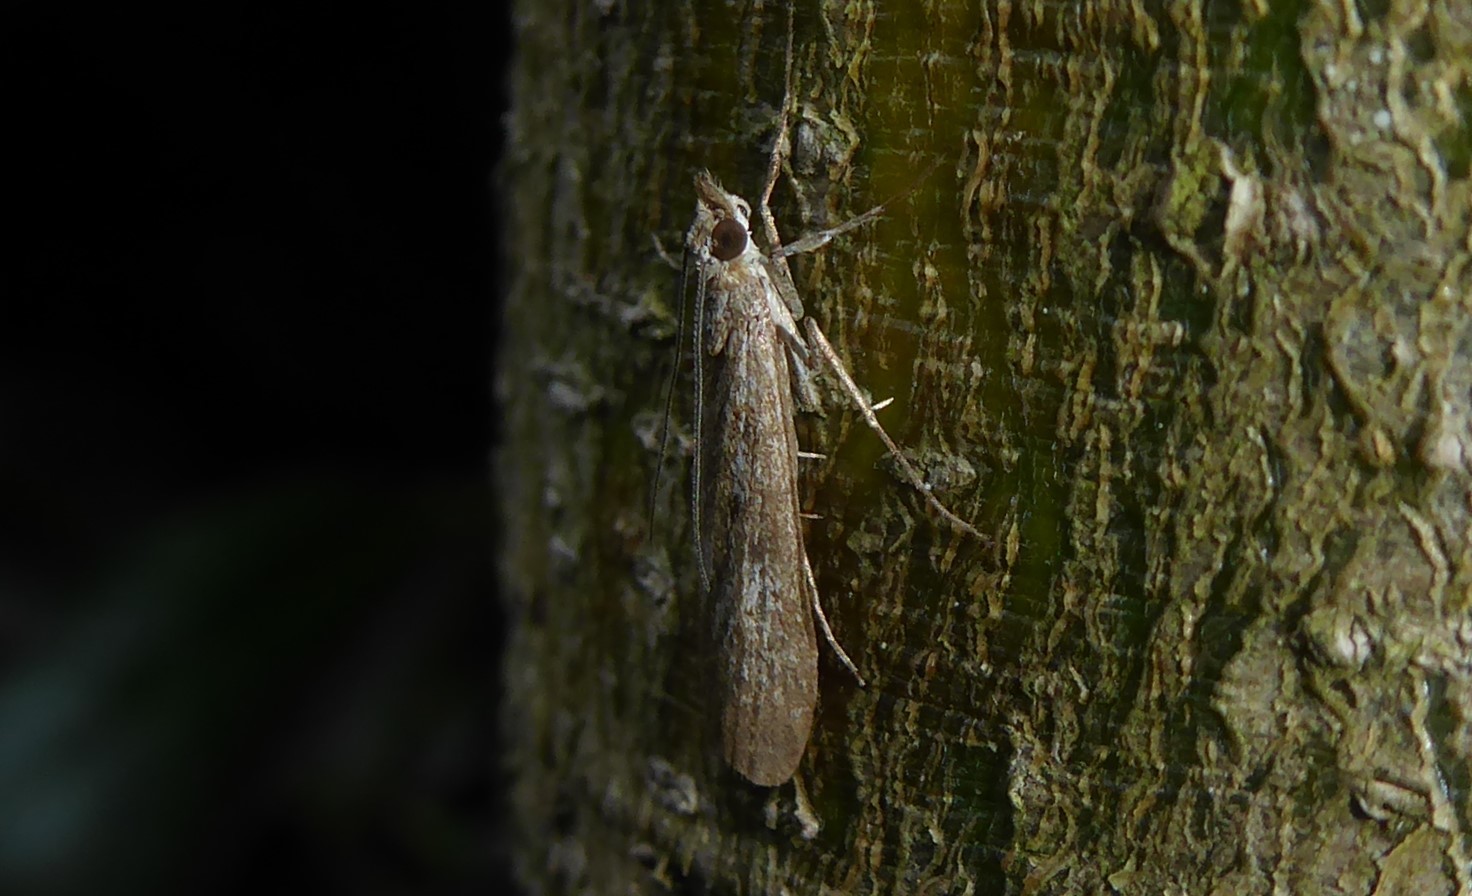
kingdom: Animalia
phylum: Arthropoda
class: Insecta
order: Lepidoptera
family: Crambidae
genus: Eudonia
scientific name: Eudonia leptalea
